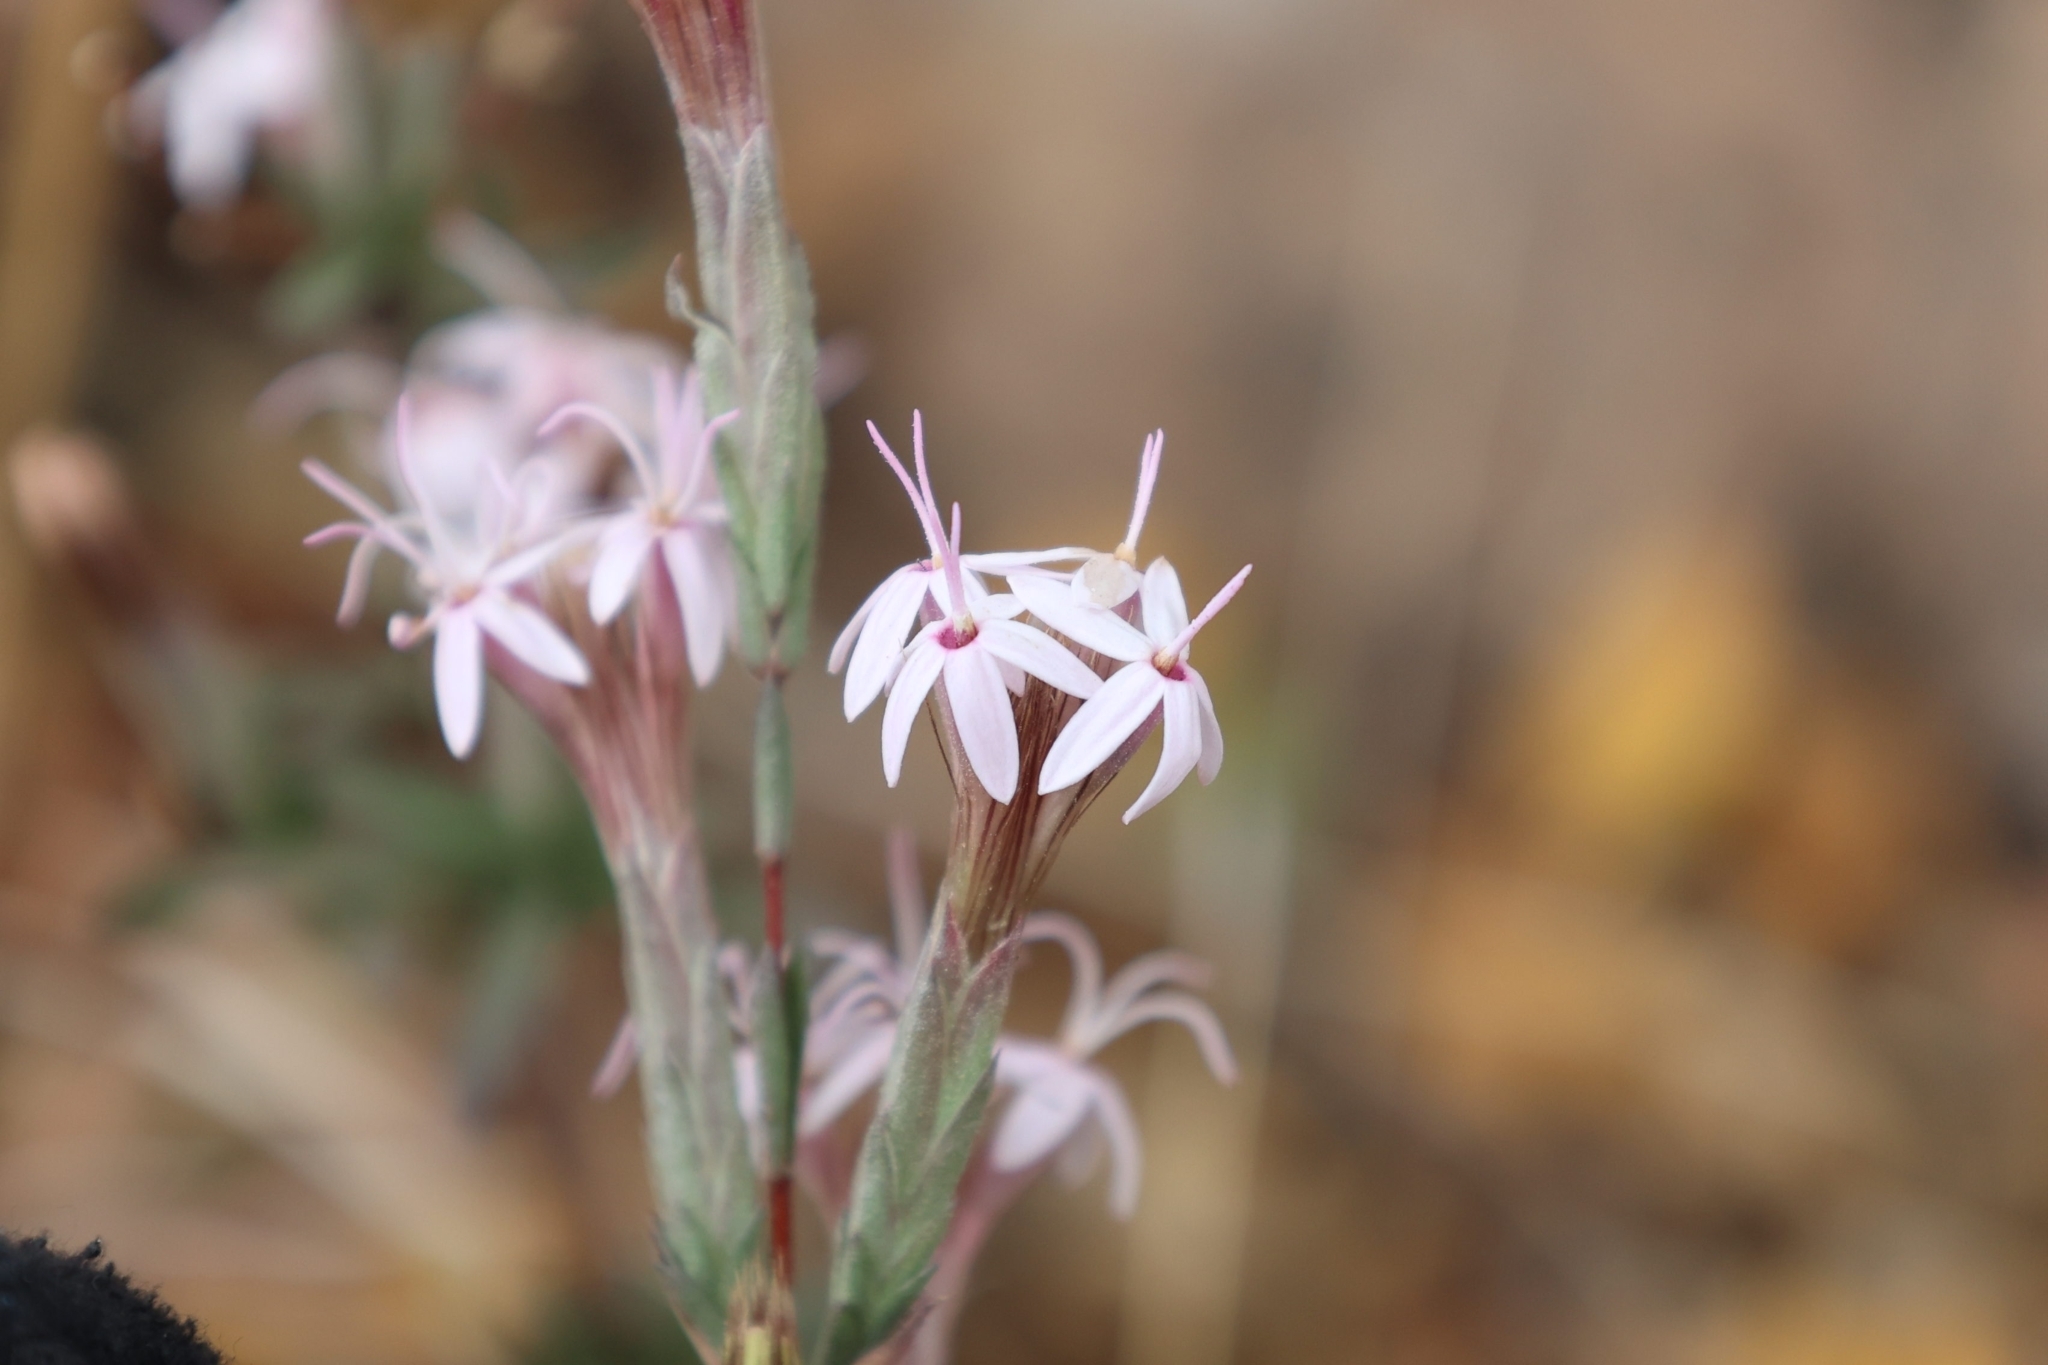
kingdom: Plantae
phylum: Tracheophyta
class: Magnoliopsida
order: Asterales
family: Asteraceae
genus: Carphochaete
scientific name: Carphochaete bigelovii
